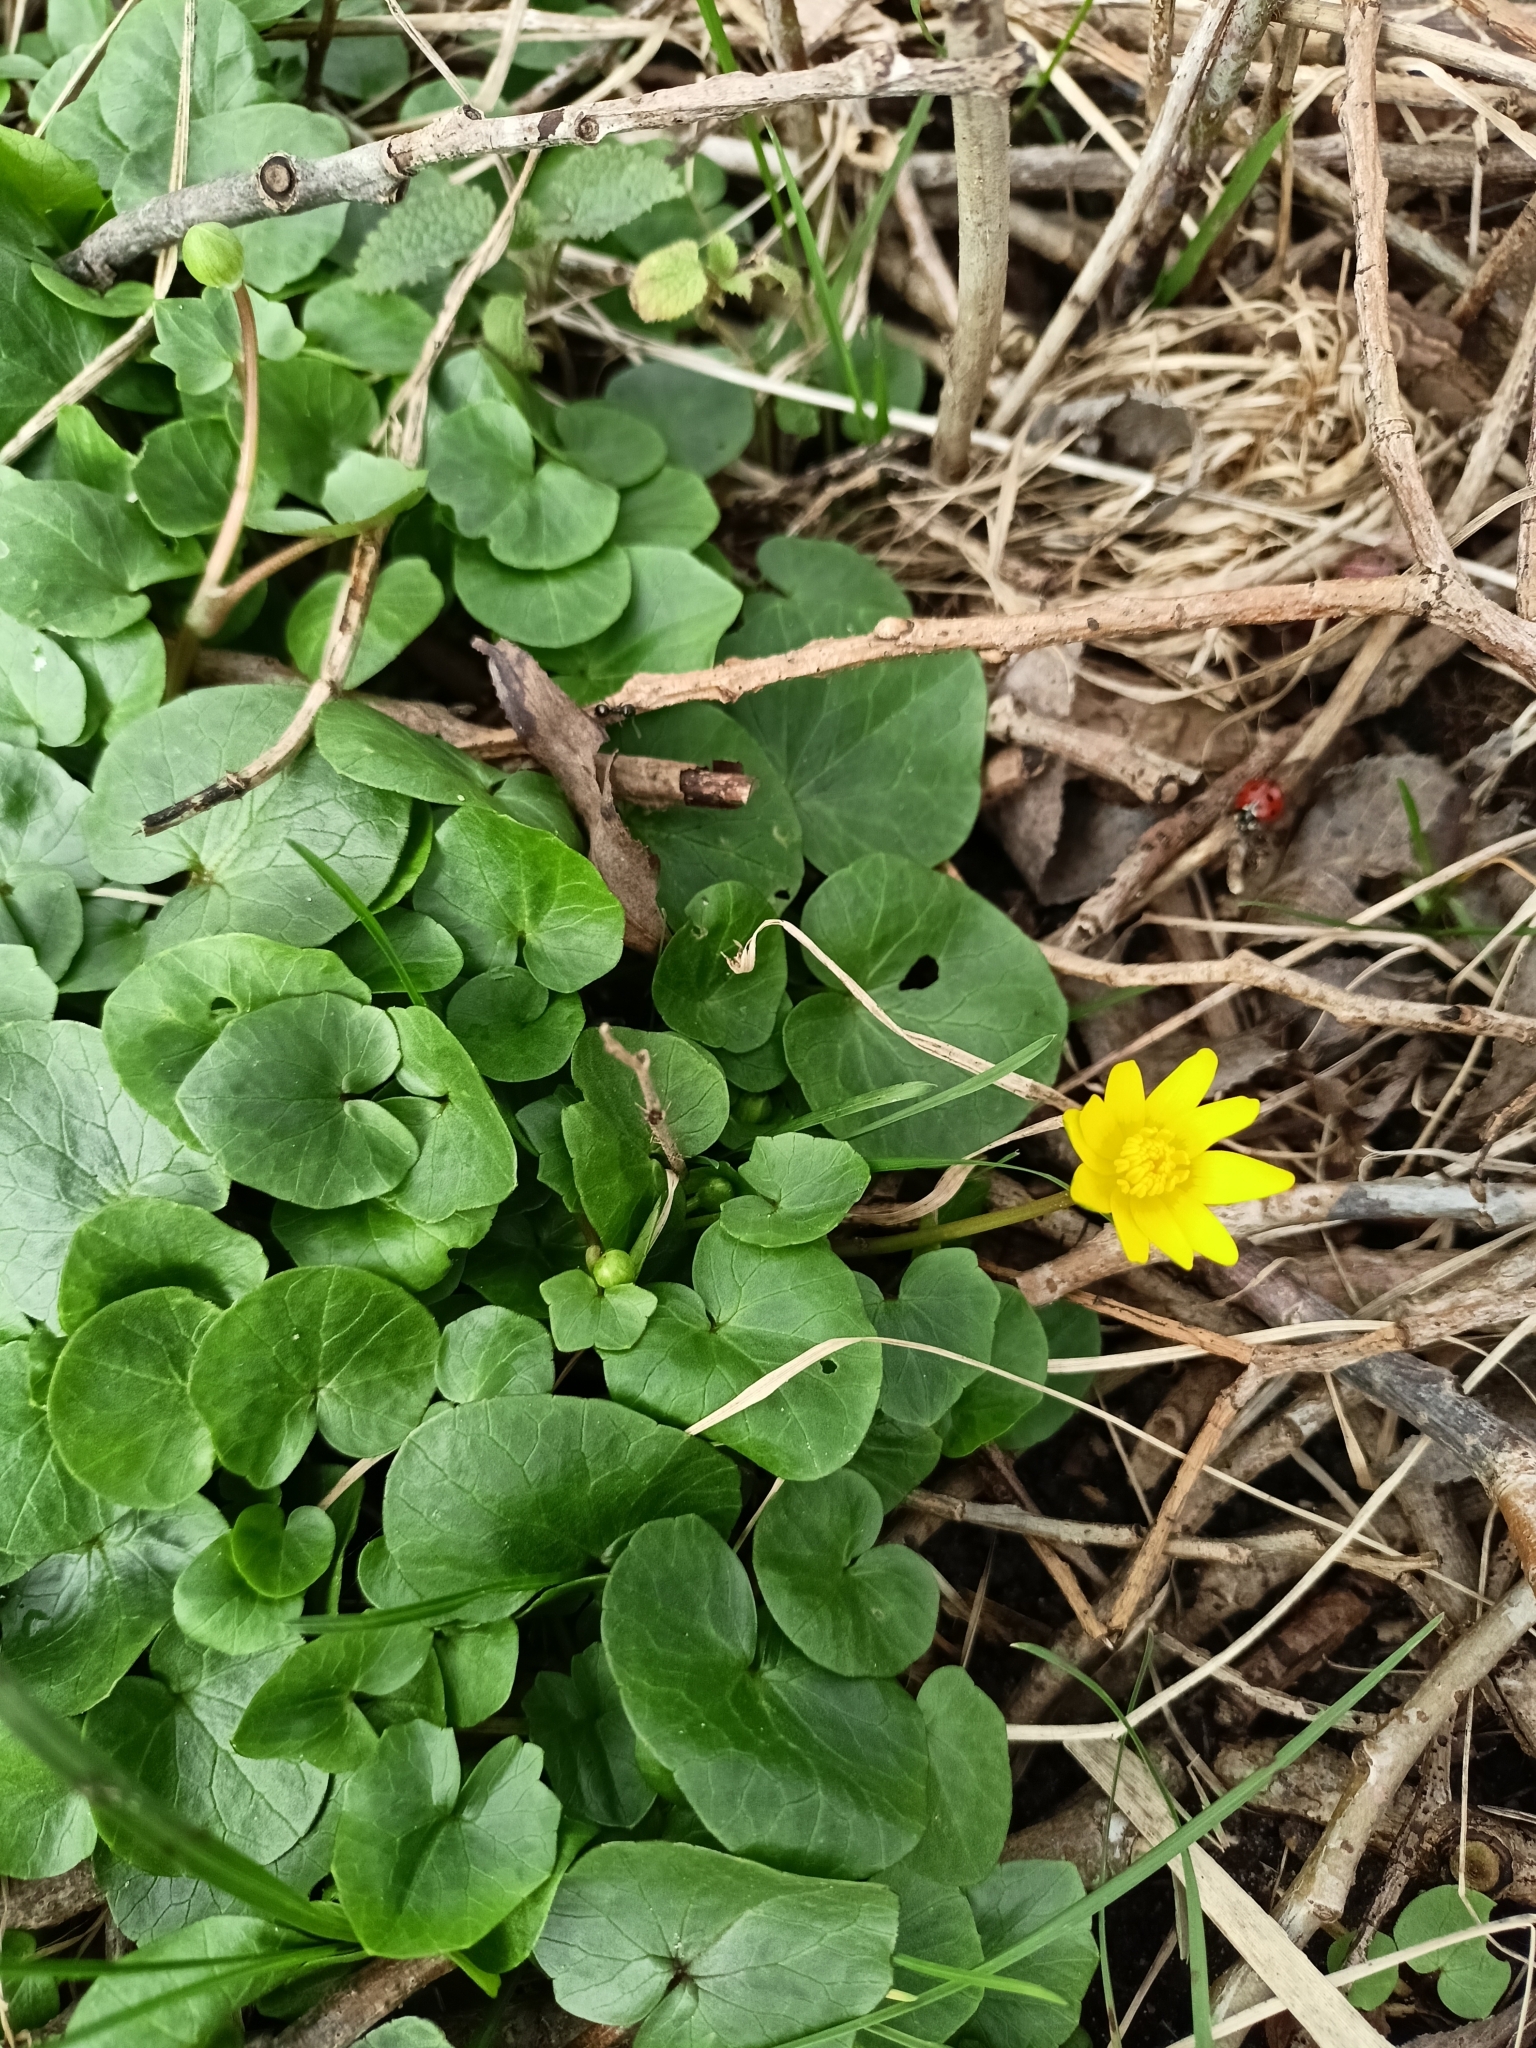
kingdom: Plantae
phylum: Tracheophyta
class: Magnoliopsida
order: Ranunculales
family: Ranunculaceae
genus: Ficaria
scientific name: Ficaria verna
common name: Lesser celandine
